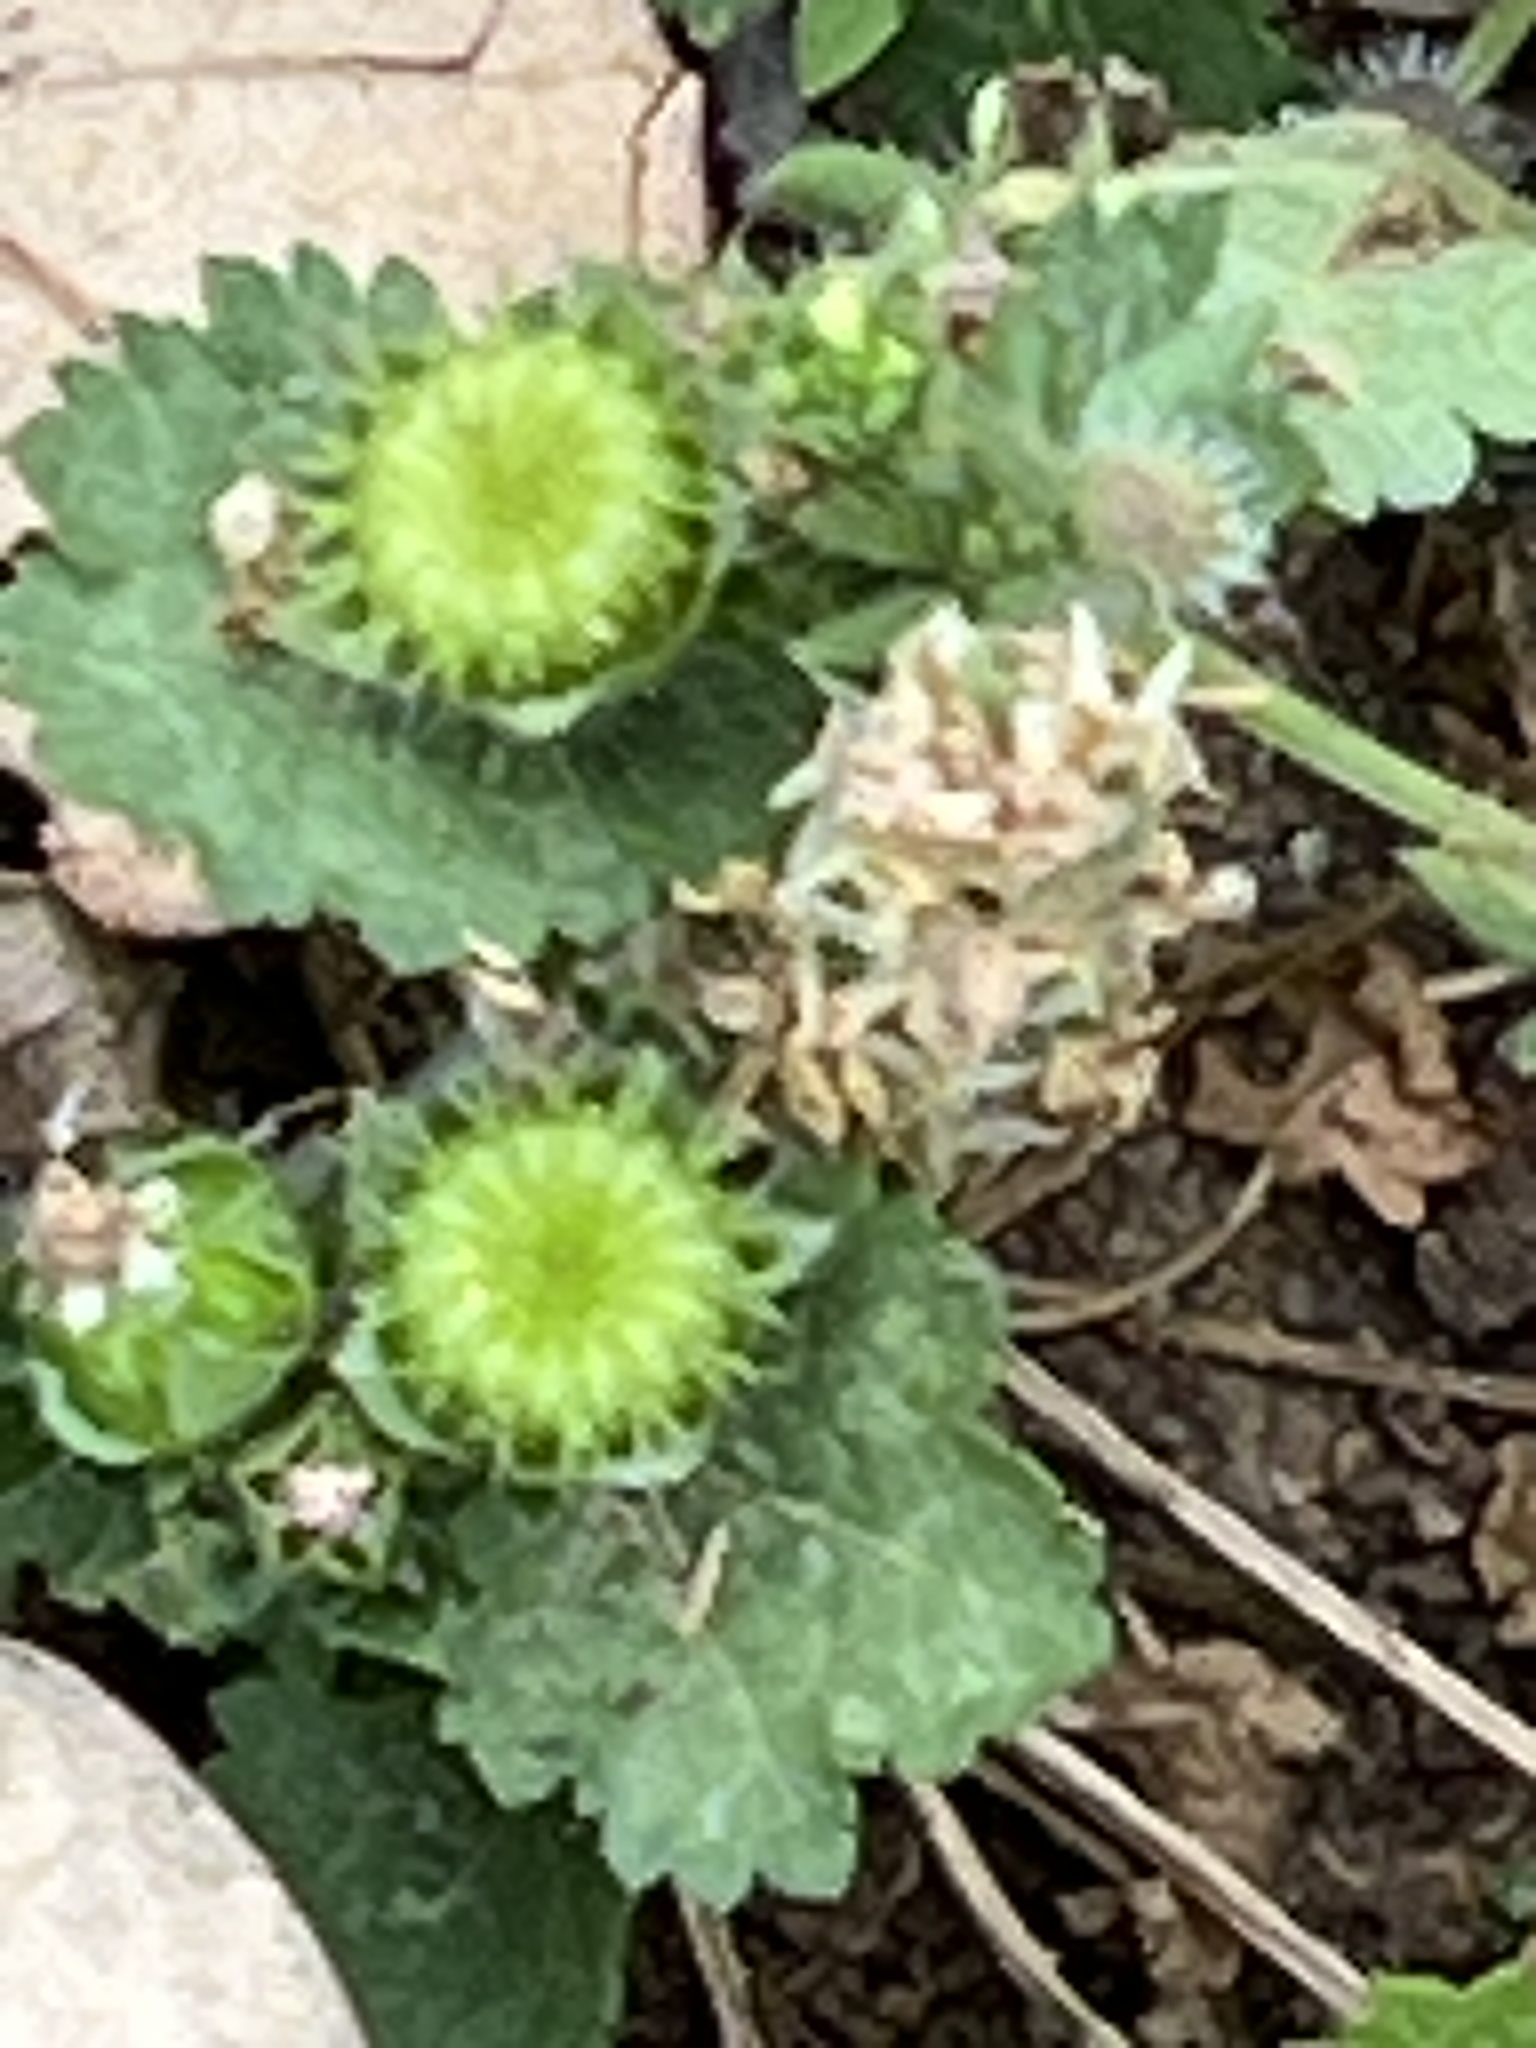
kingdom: Plantae
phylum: Tracheophyta
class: Magnoliopsida
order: Malvales
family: Malvaceae
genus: Modiola
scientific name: Modiola caroliniana
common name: Carolina bristlemallow
